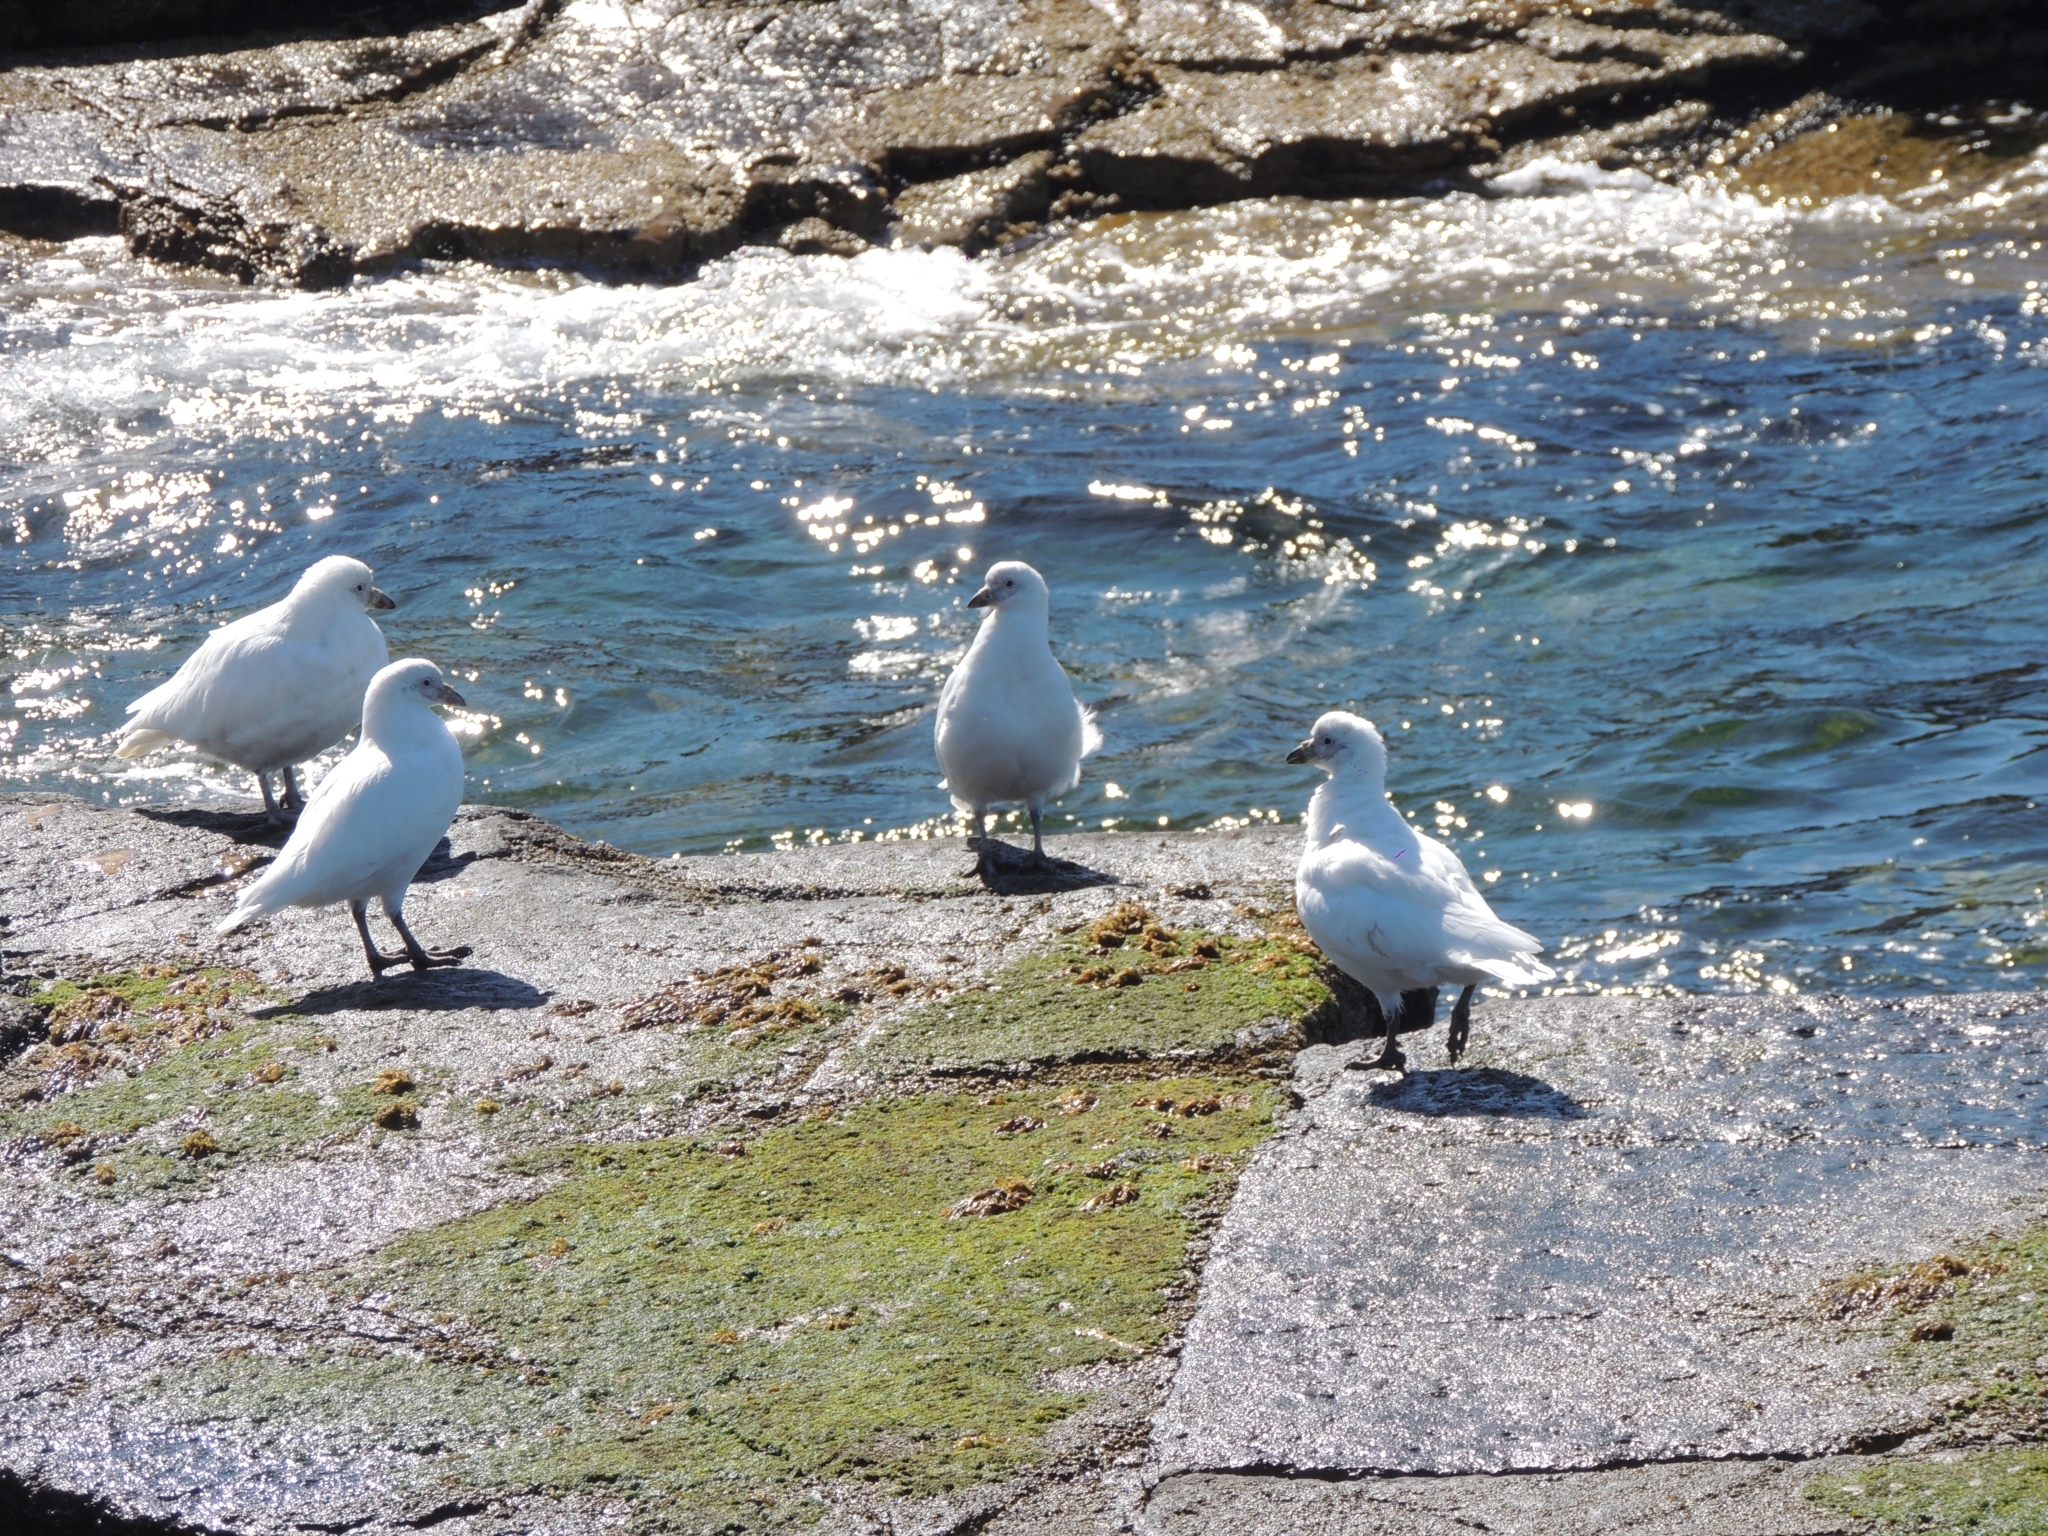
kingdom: Animalia
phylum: Chordata
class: Aves
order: Charadriiformes
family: Chionidae
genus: Chionis
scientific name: Chionis albus
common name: Snowy sheathbill
